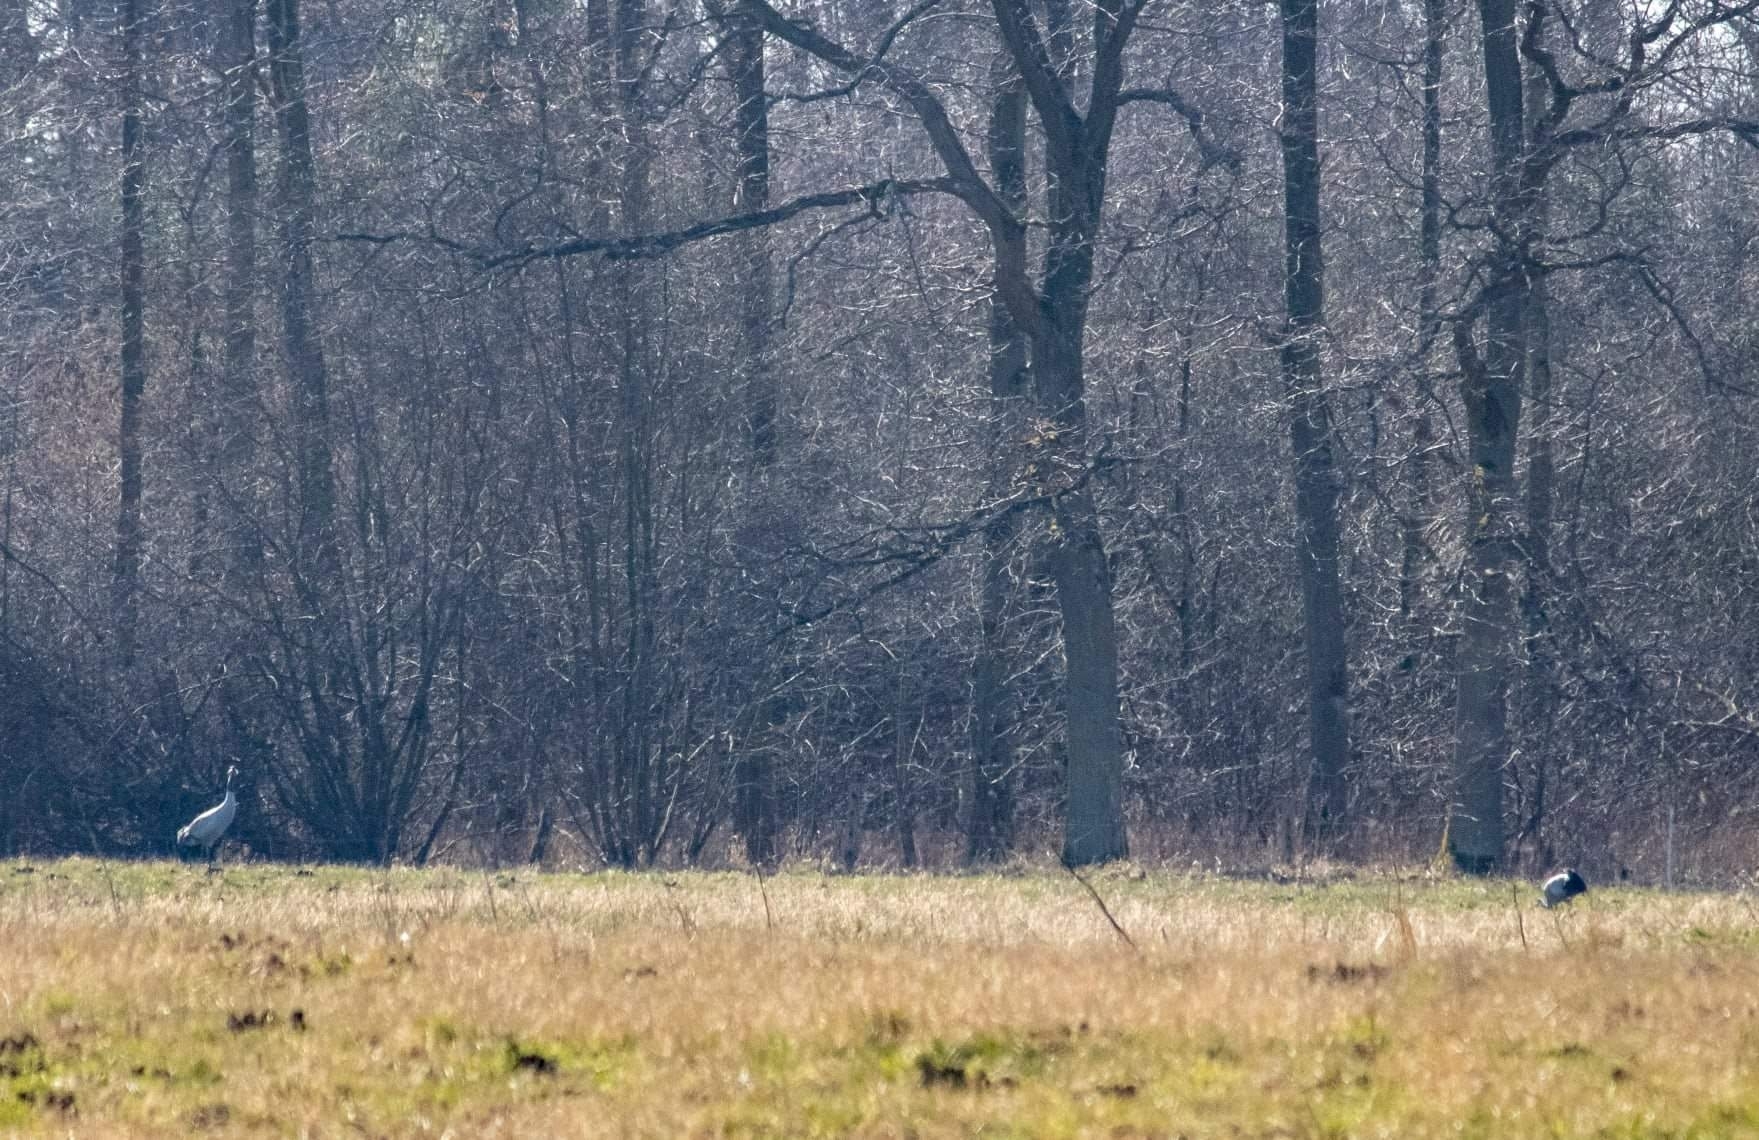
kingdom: Animalia
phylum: Chordata
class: Aves
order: Gruiformes
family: Gruidae
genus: Grus
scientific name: Grus grus
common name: Common crane
